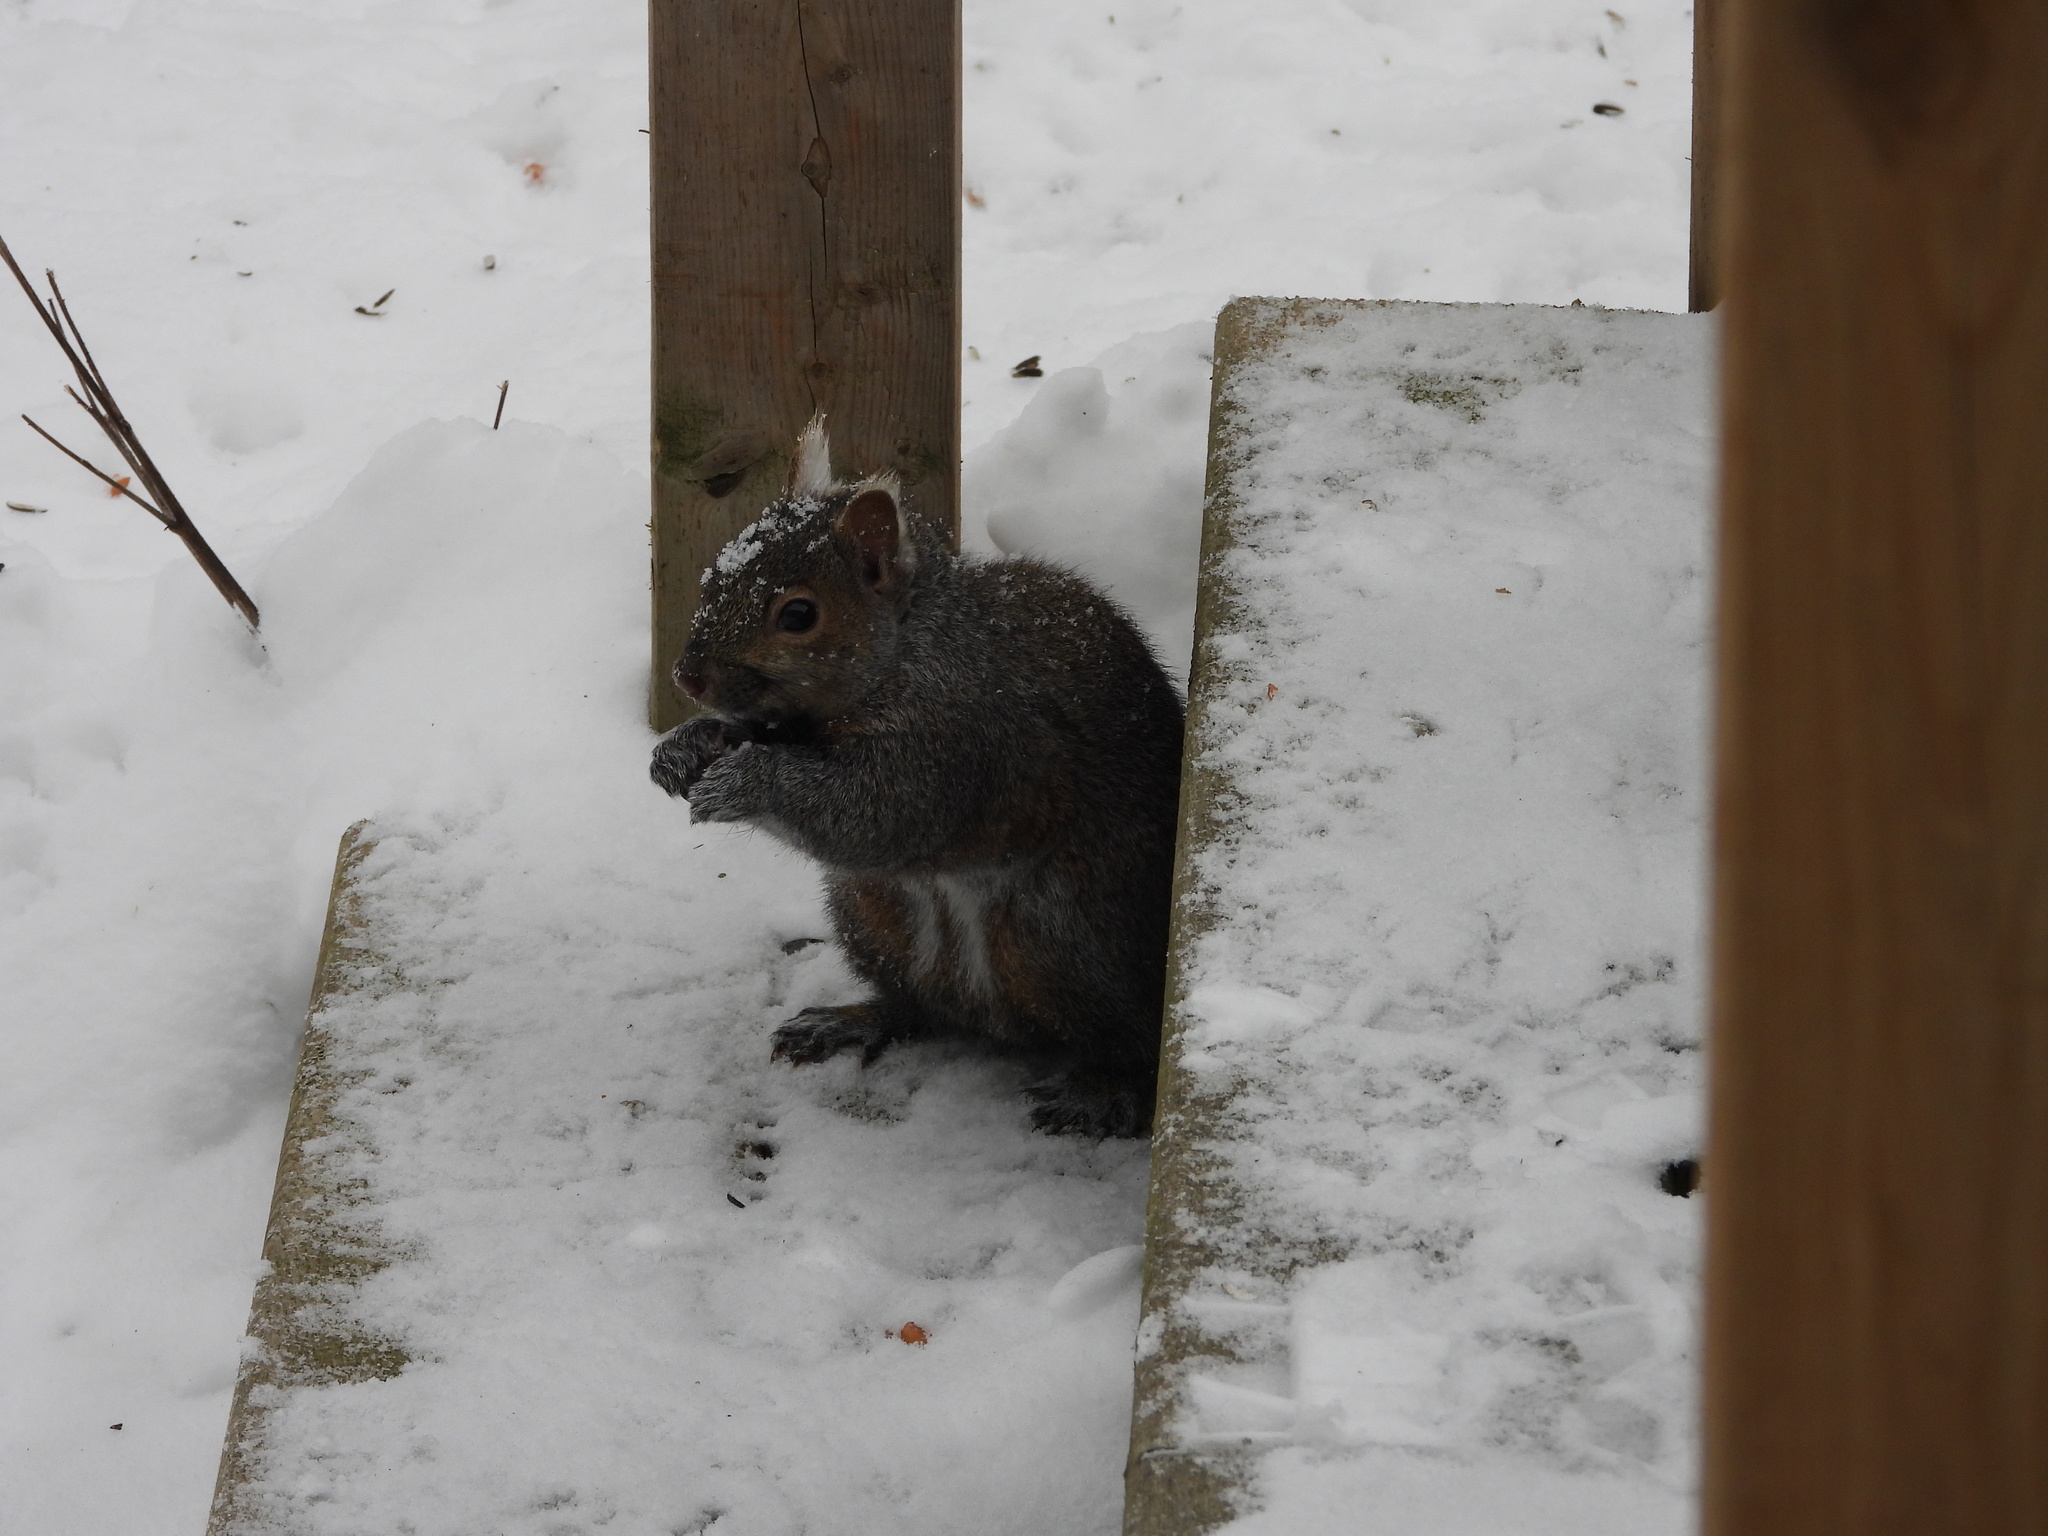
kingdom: Animalia
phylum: Chordata
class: Mammalia
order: Rodentia
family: Sciuridae
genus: Sciurus
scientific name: Sciurus carolinensis
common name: Eastern gray squirrel
